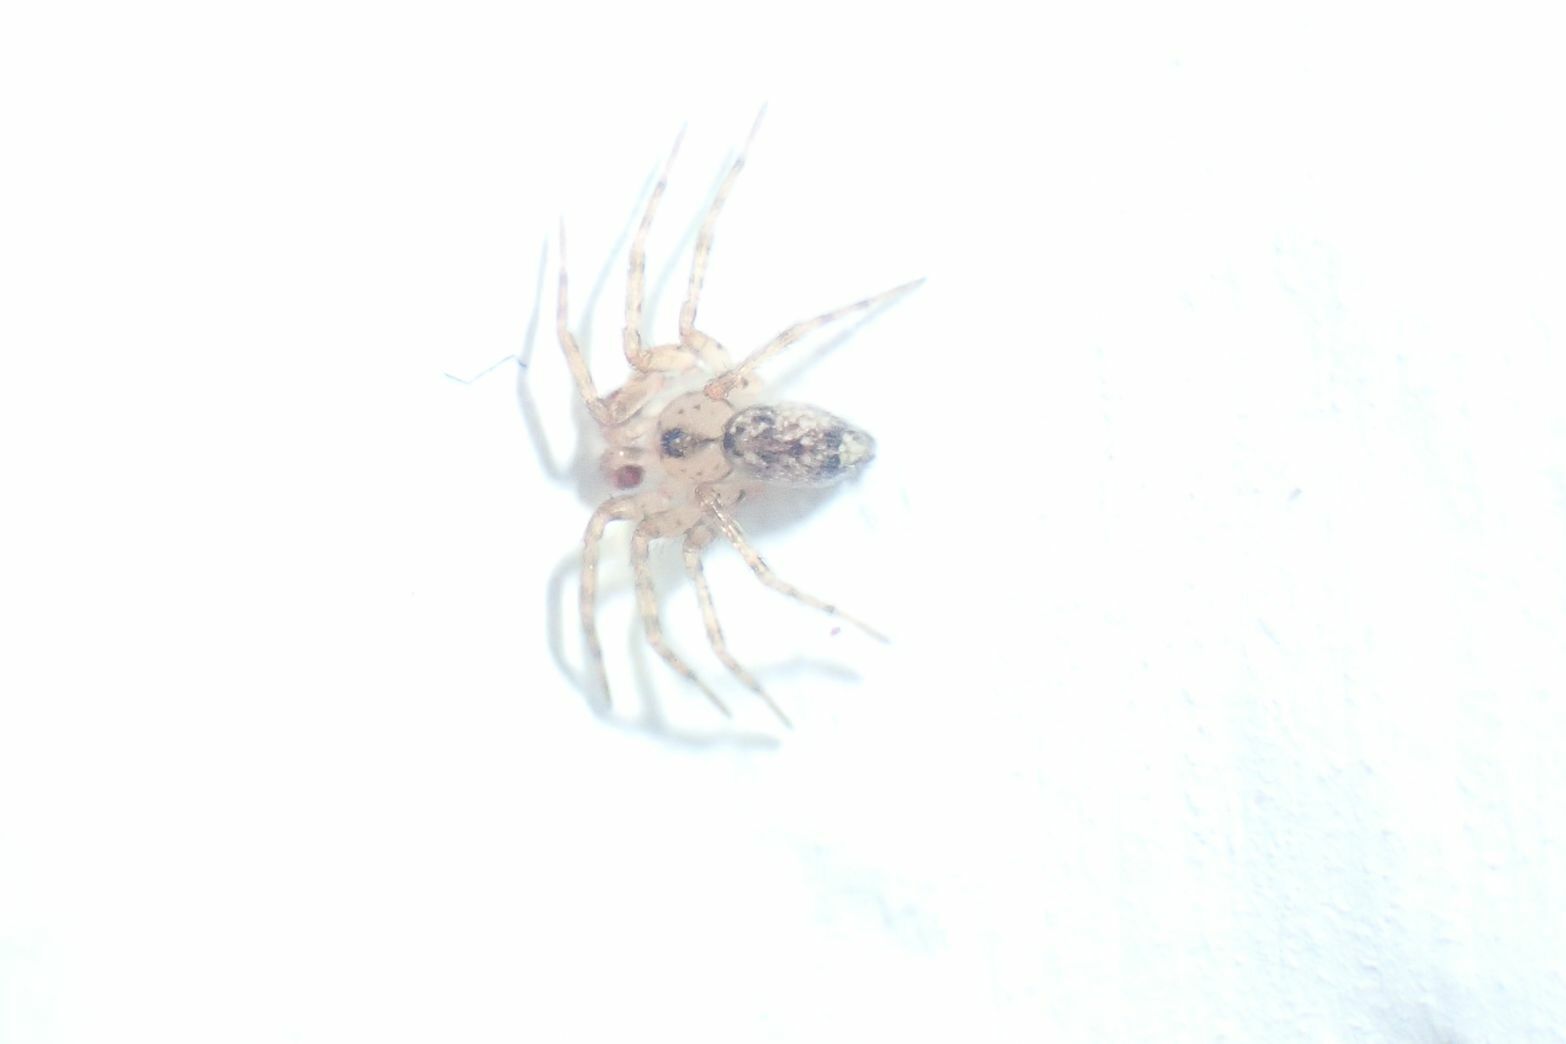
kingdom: Animalia
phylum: Arthropoda
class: Arachnida
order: Araneae
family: Oecobiidae
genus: Oecobius
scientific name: Oecobius
